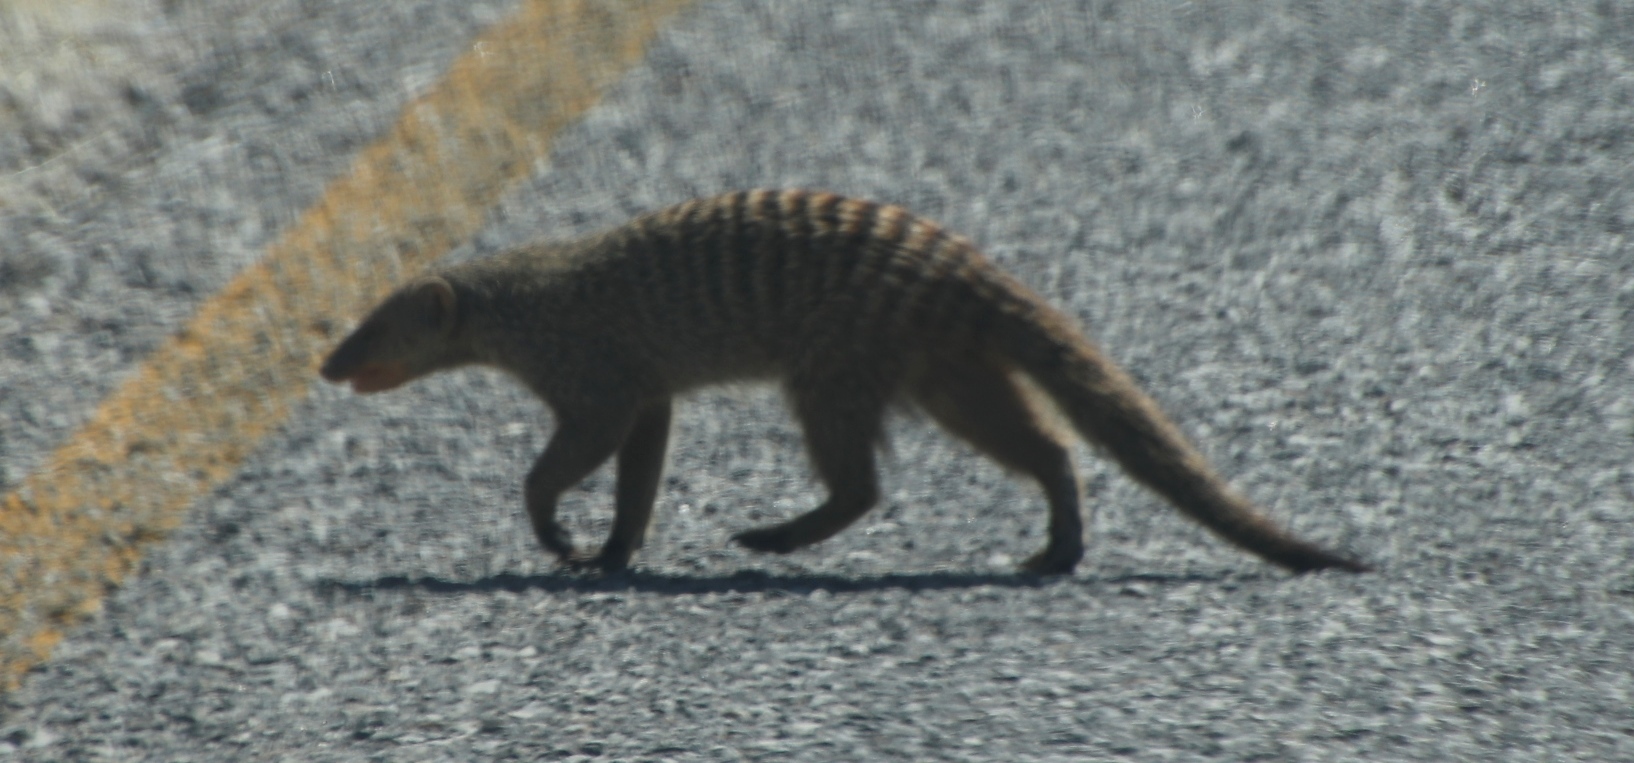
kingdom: Animalia
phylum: Chordata
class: Mammalia
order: Carnivora
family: Herpestidae
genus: Mungos
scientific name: Mungos mungo
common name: Banded mongoose
